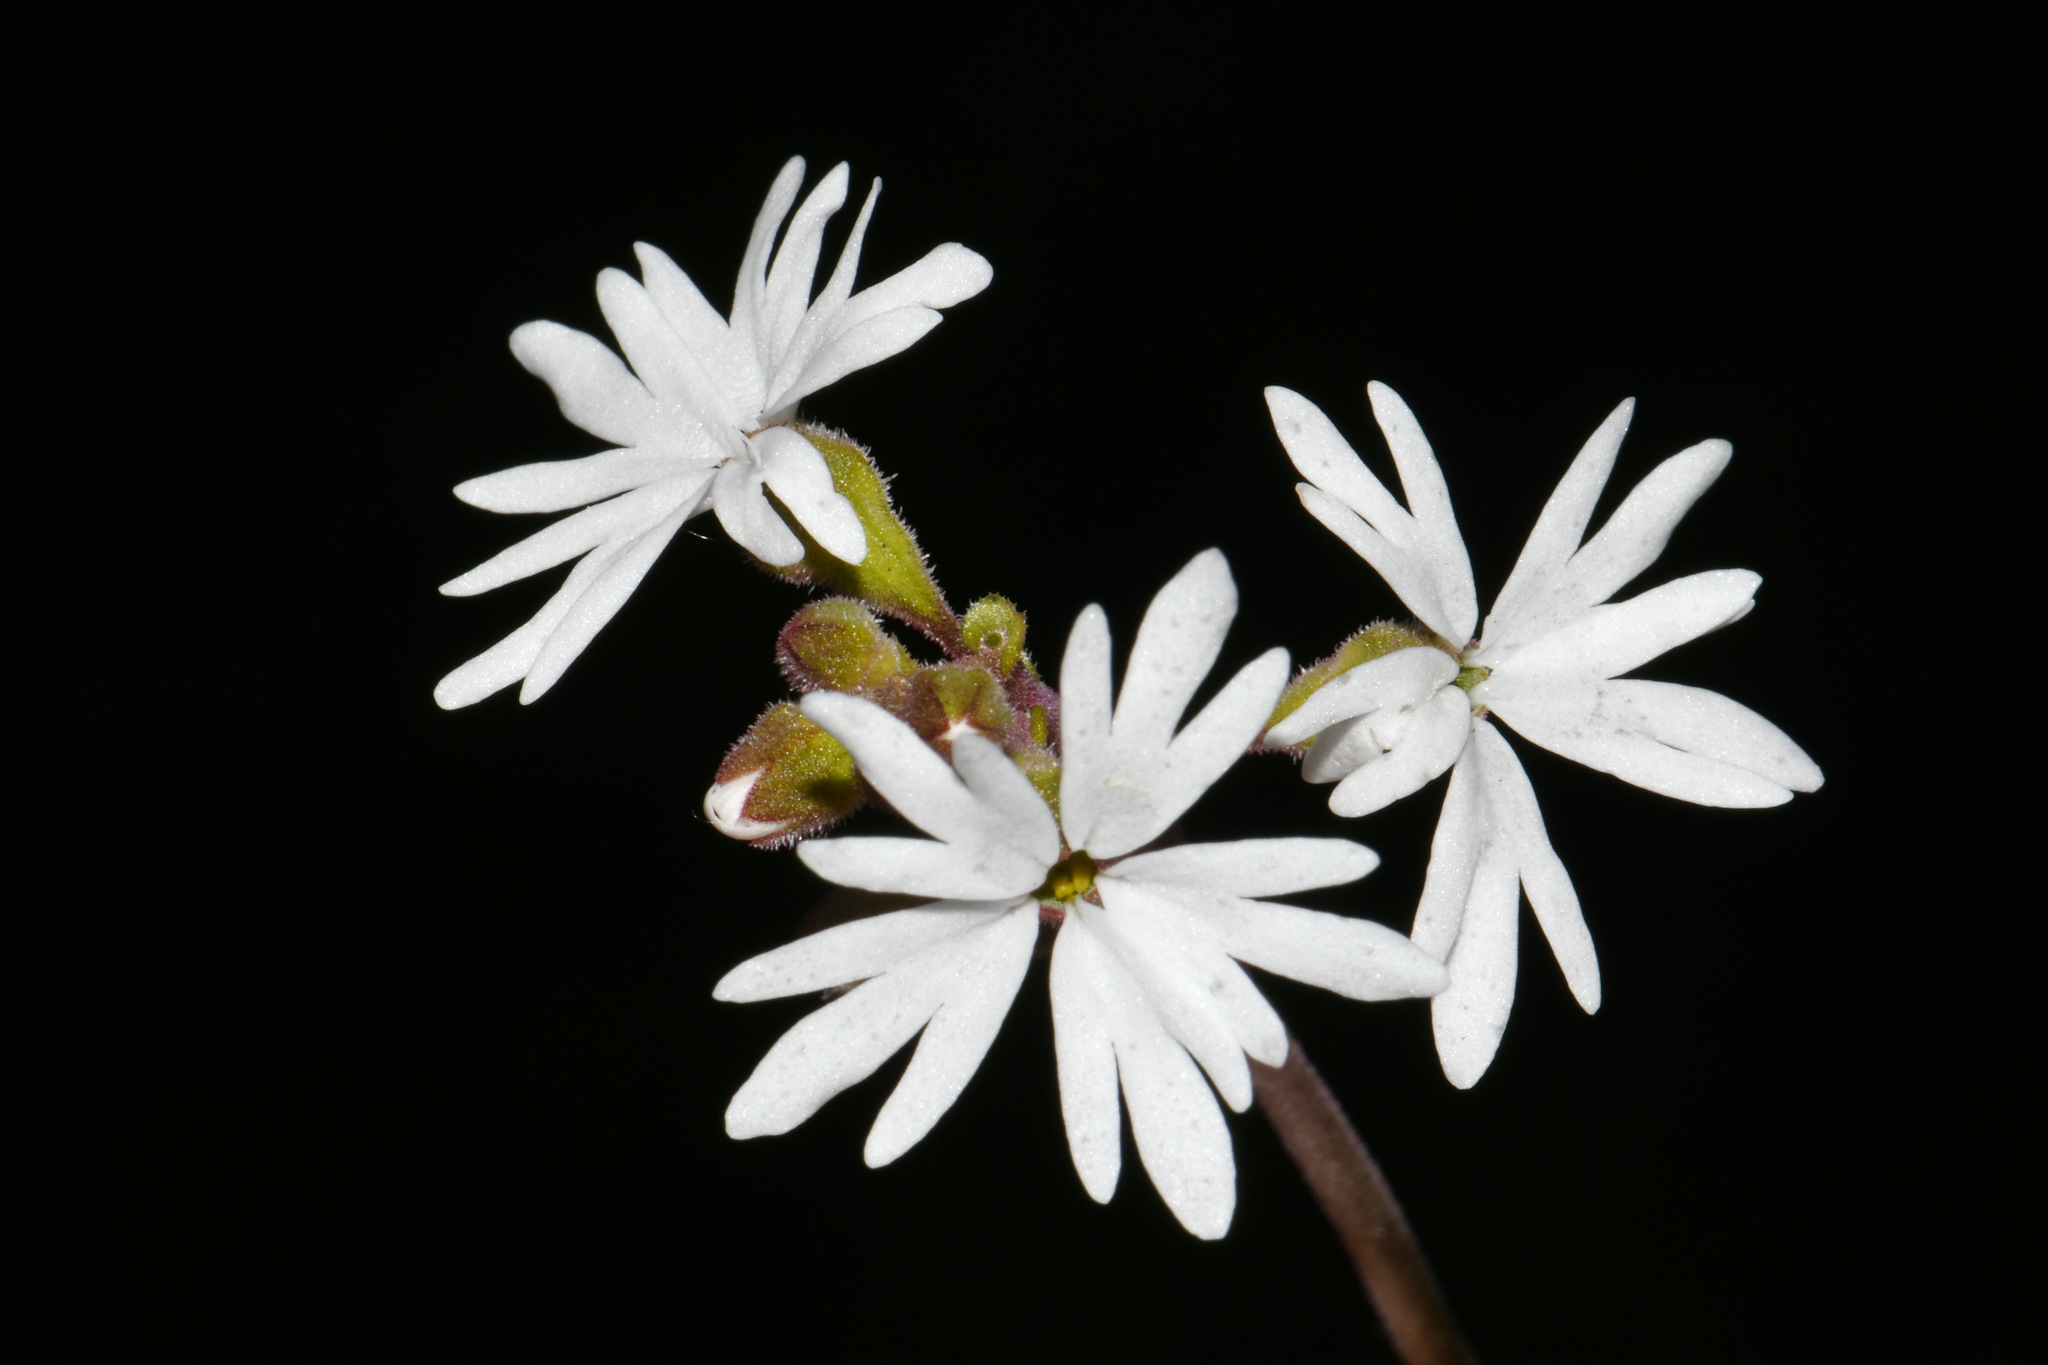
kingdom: Plantae
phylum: Tracheophyta
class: Magnoliopsida
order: Saxifragales
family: Saxifragaceae
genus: Lithophragma
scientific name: Lithophragma parviflorum
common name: Small-flowered fringe-cup
